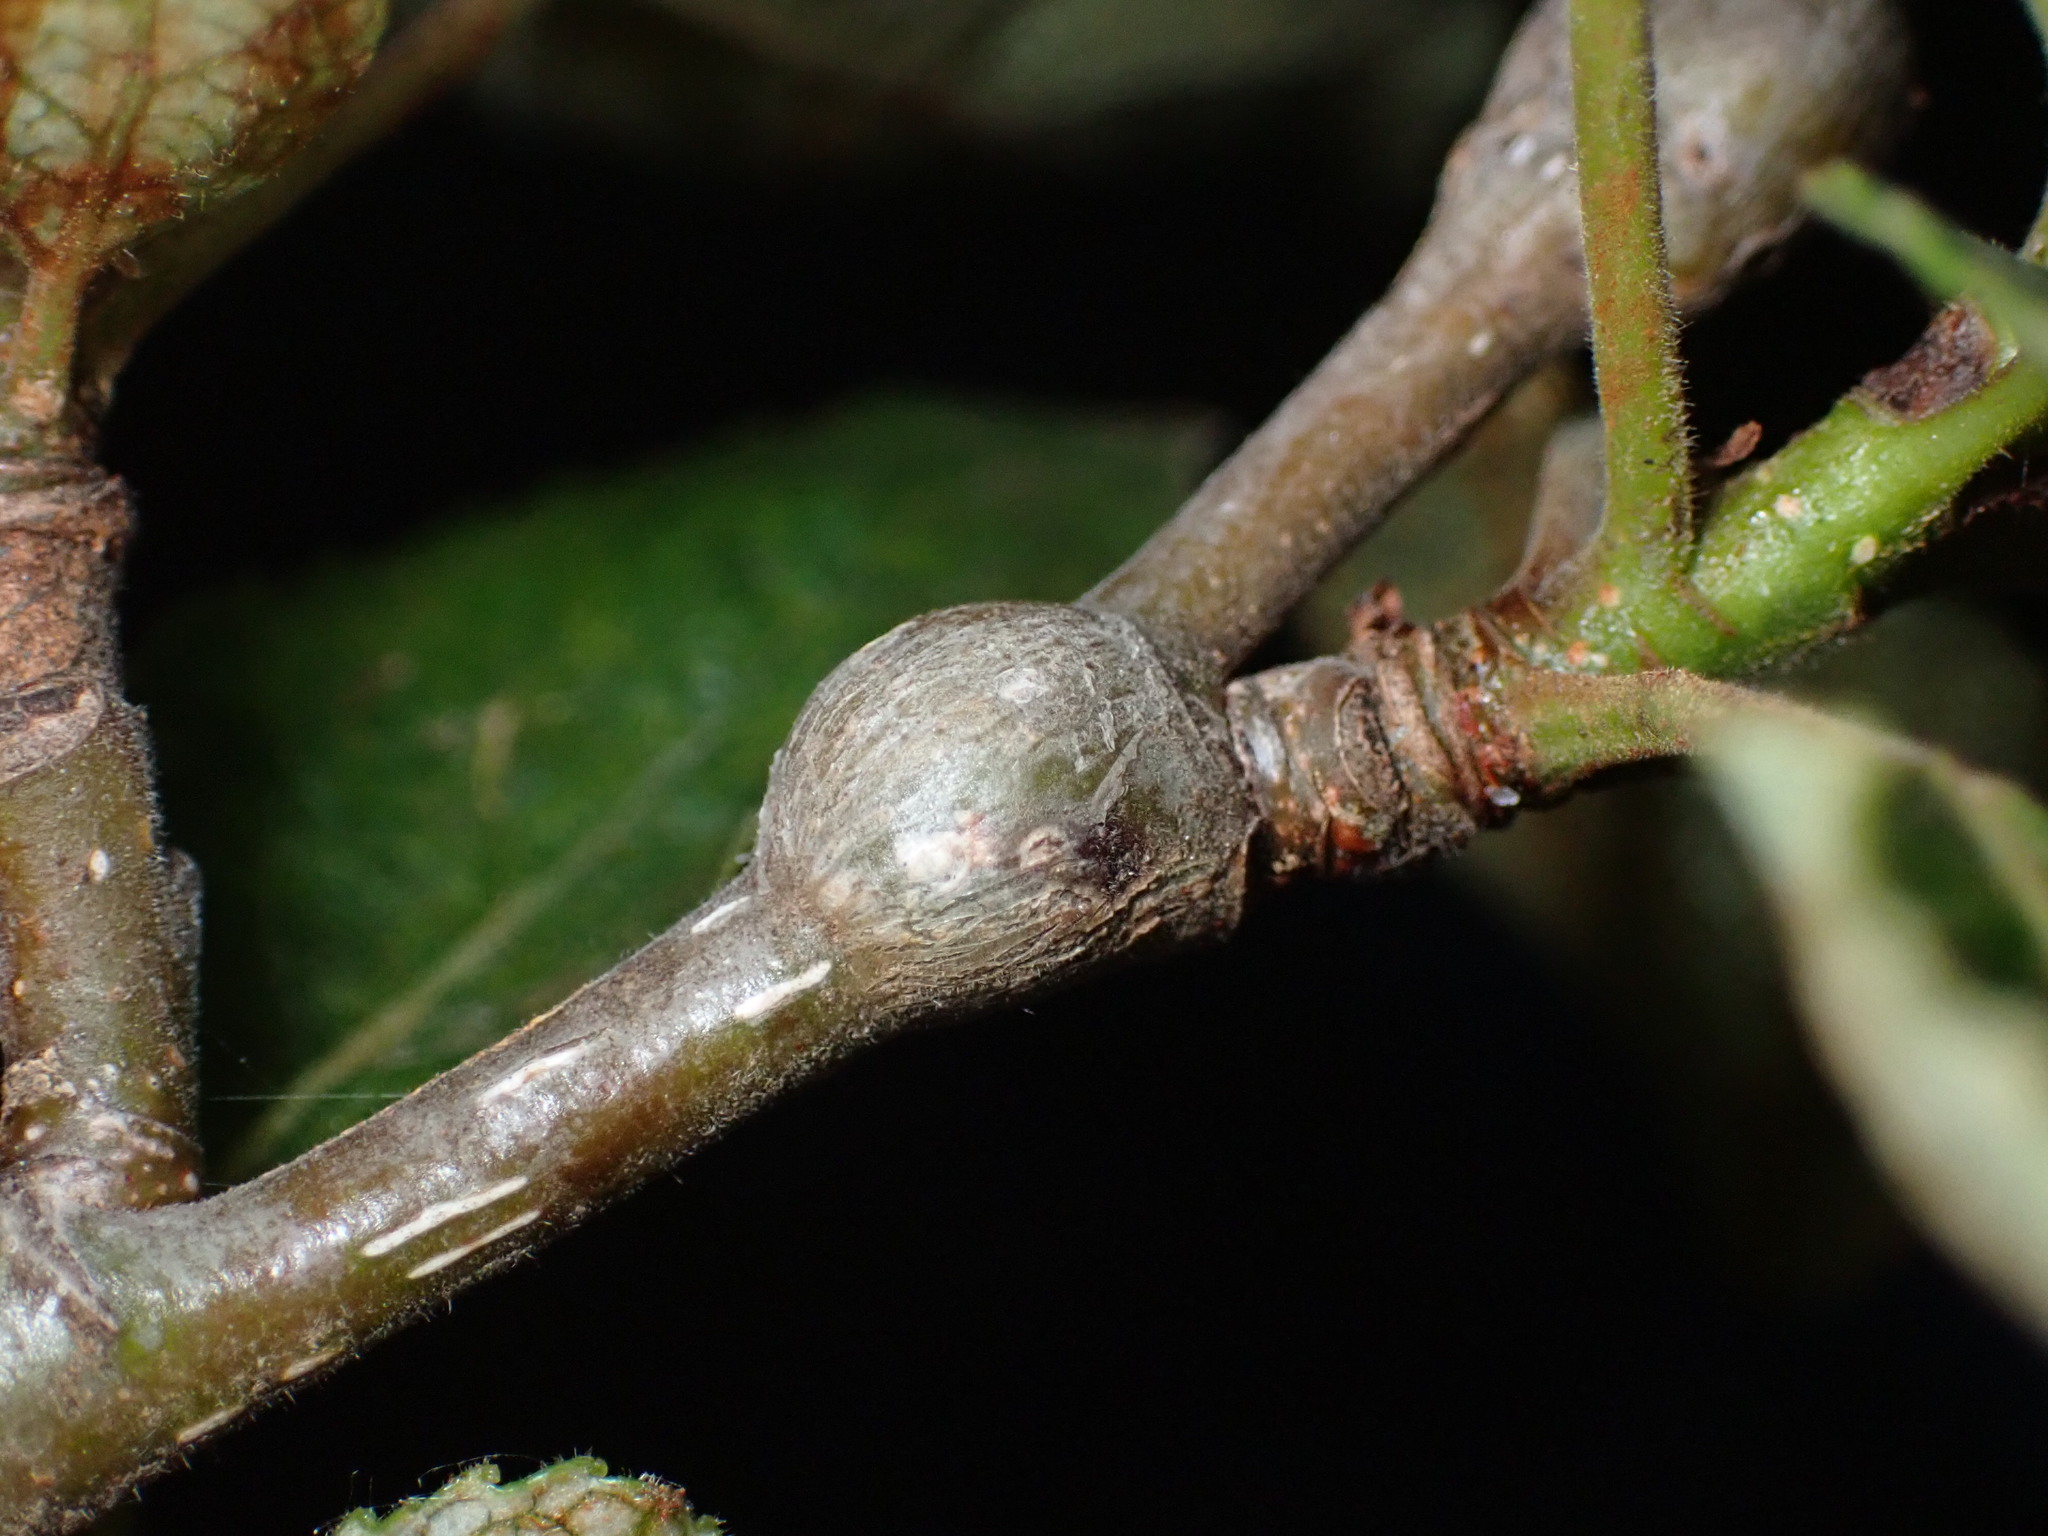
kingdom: Animalia
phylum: Arthropoda
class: Insecta
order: Coleoptera
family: Cerambycidae
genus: Saperda
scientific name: Saperda populnea
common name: Small poplar borer
